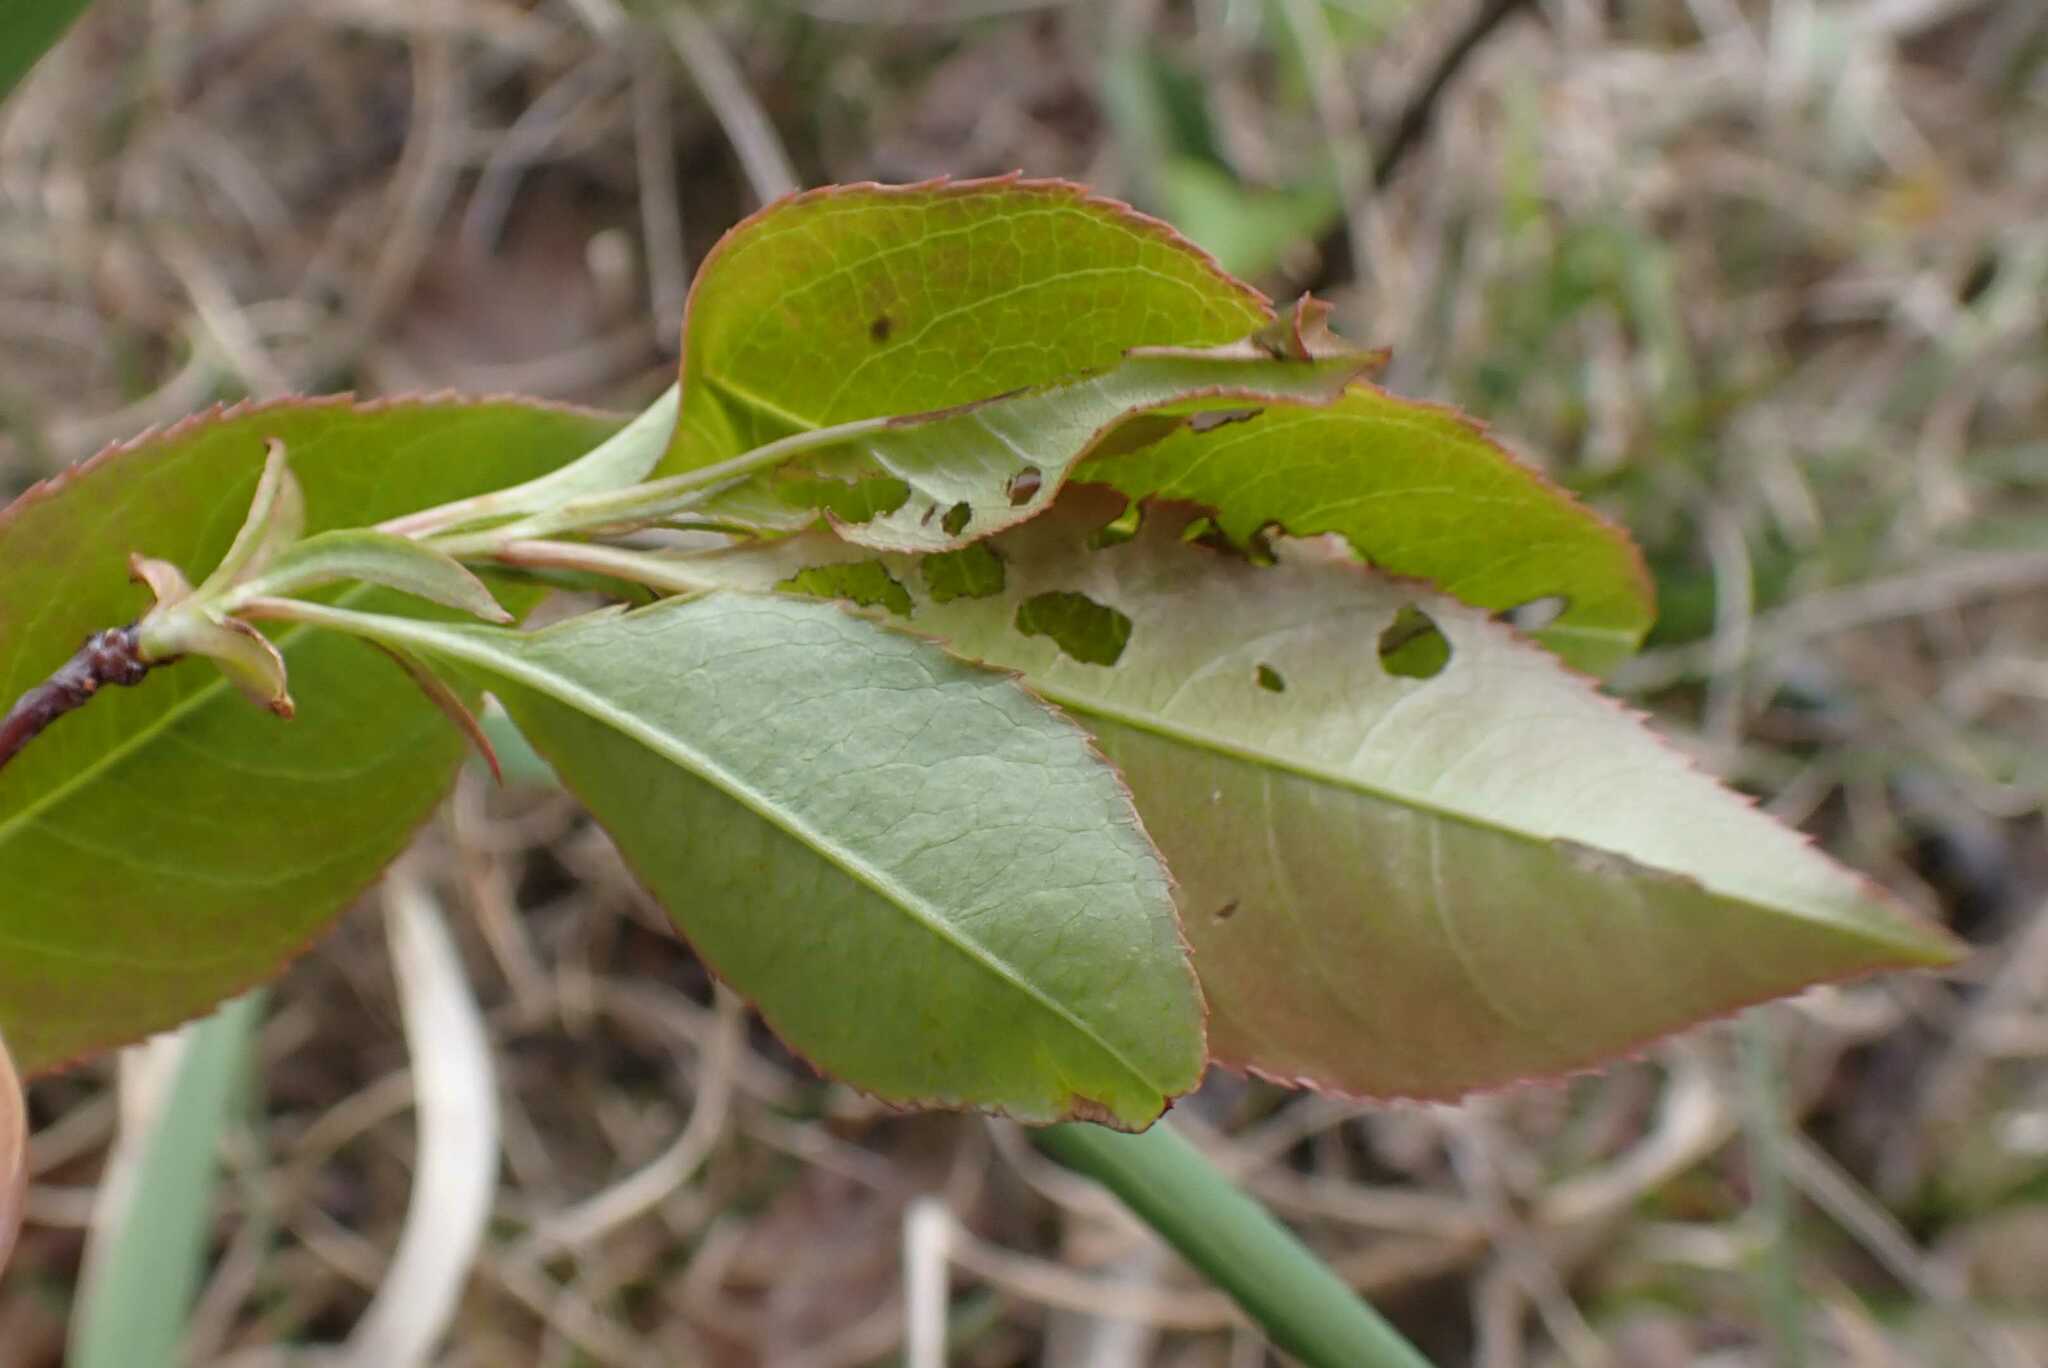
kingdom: Plantae
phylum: Tracheophyta
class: Magnoliopsida
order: Rosales
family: Rosaceae
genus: Prunus
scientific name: Prunus serotina
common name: Black cherry
